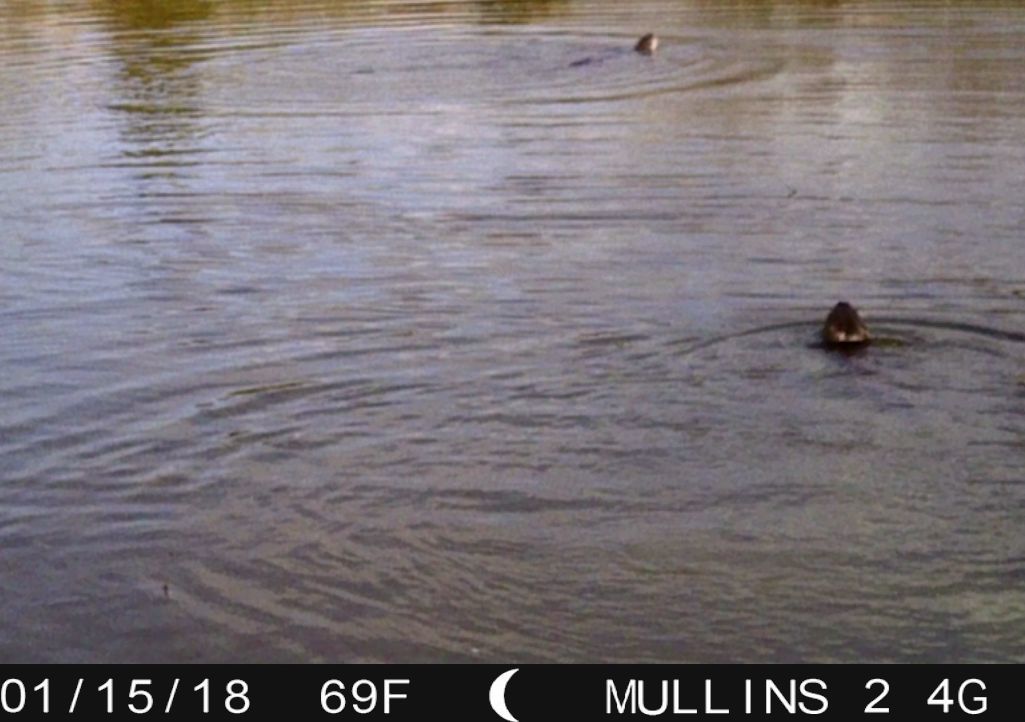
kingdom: Animalia
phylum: Chordata
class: Mammalia
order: Carnivora
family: Mustelidae
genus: Lontra
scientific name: Lontra canadensis
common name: North american river otter
